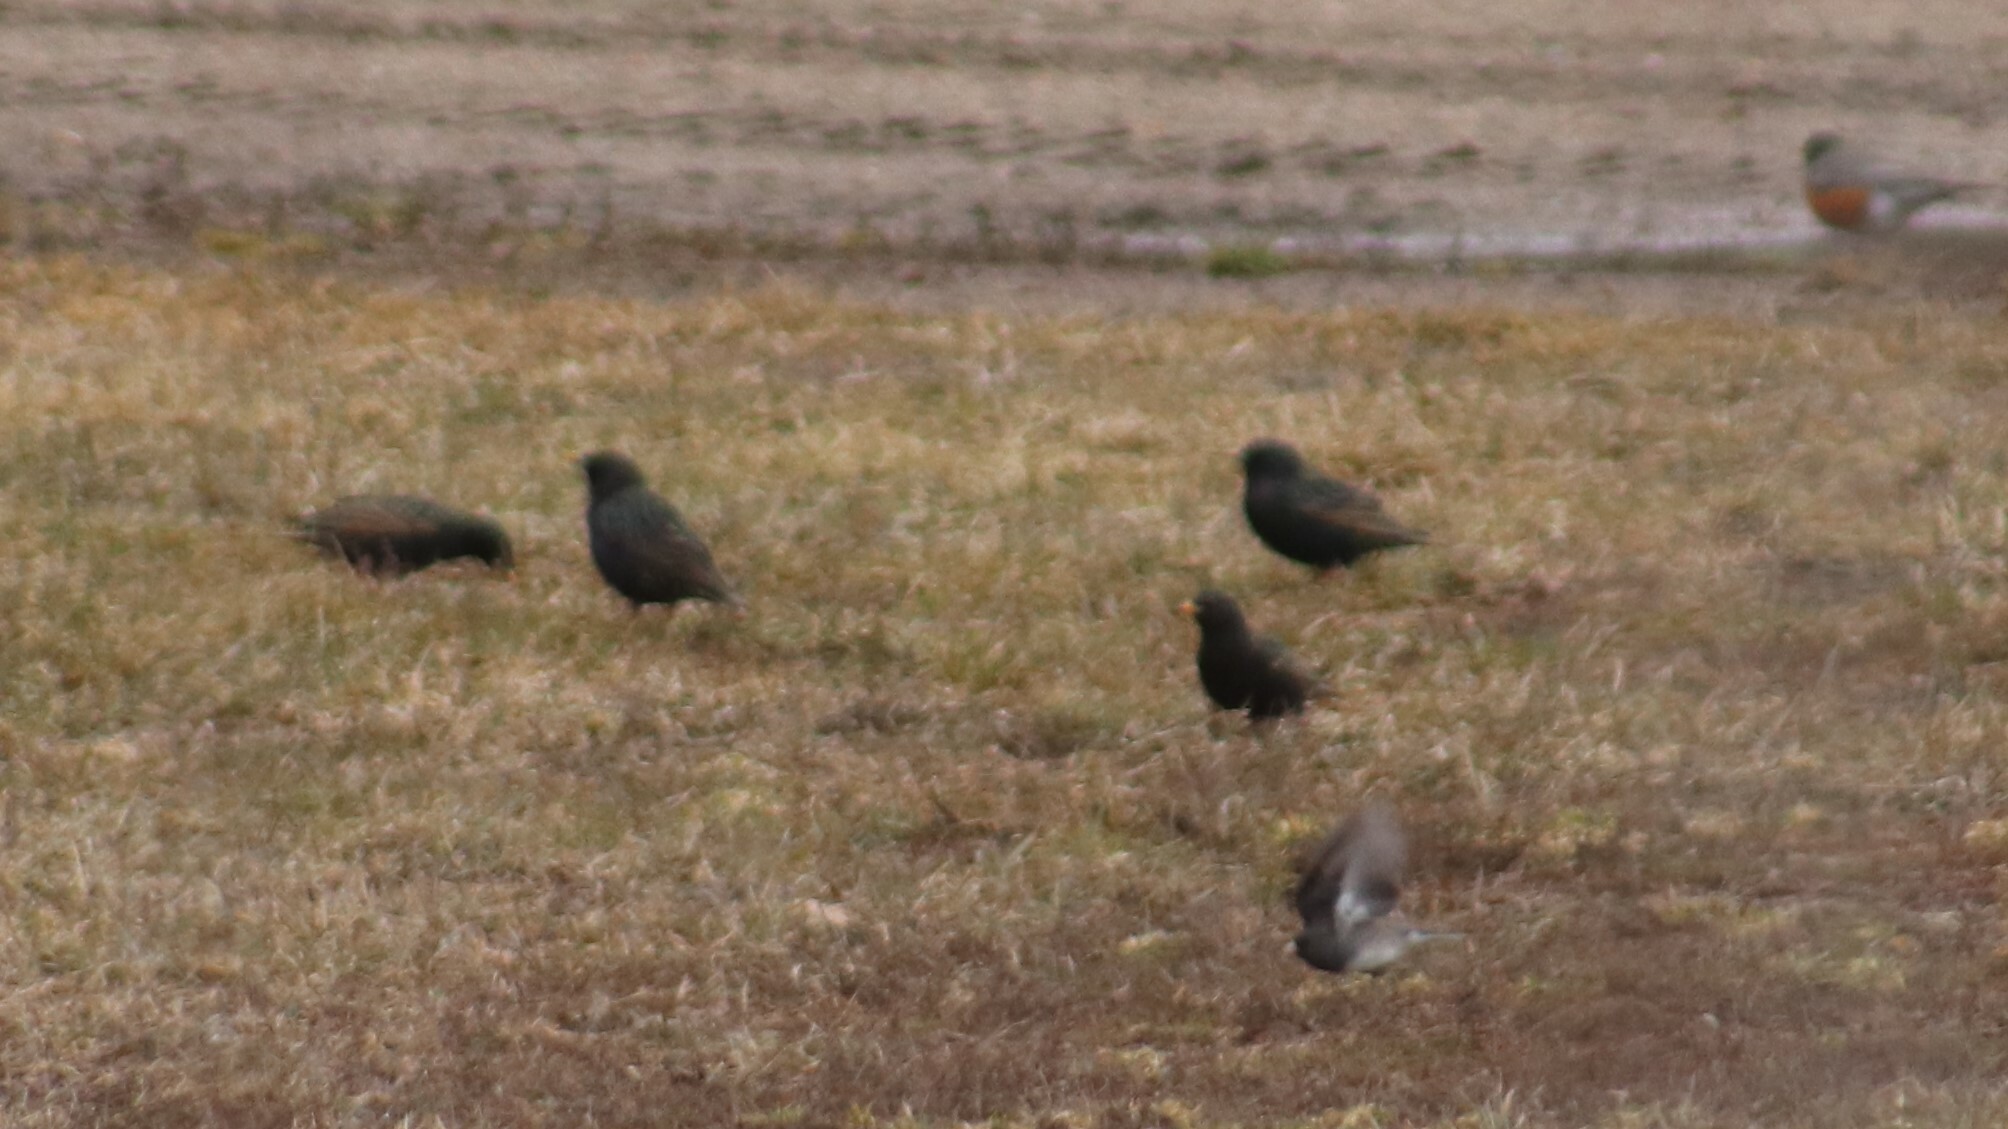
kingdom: Animalia
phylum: Chordata
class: Aves
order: Passeriformes
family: Sturnidae
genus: Sturnus
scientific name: Sturnus vulgaris
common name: Common starling
